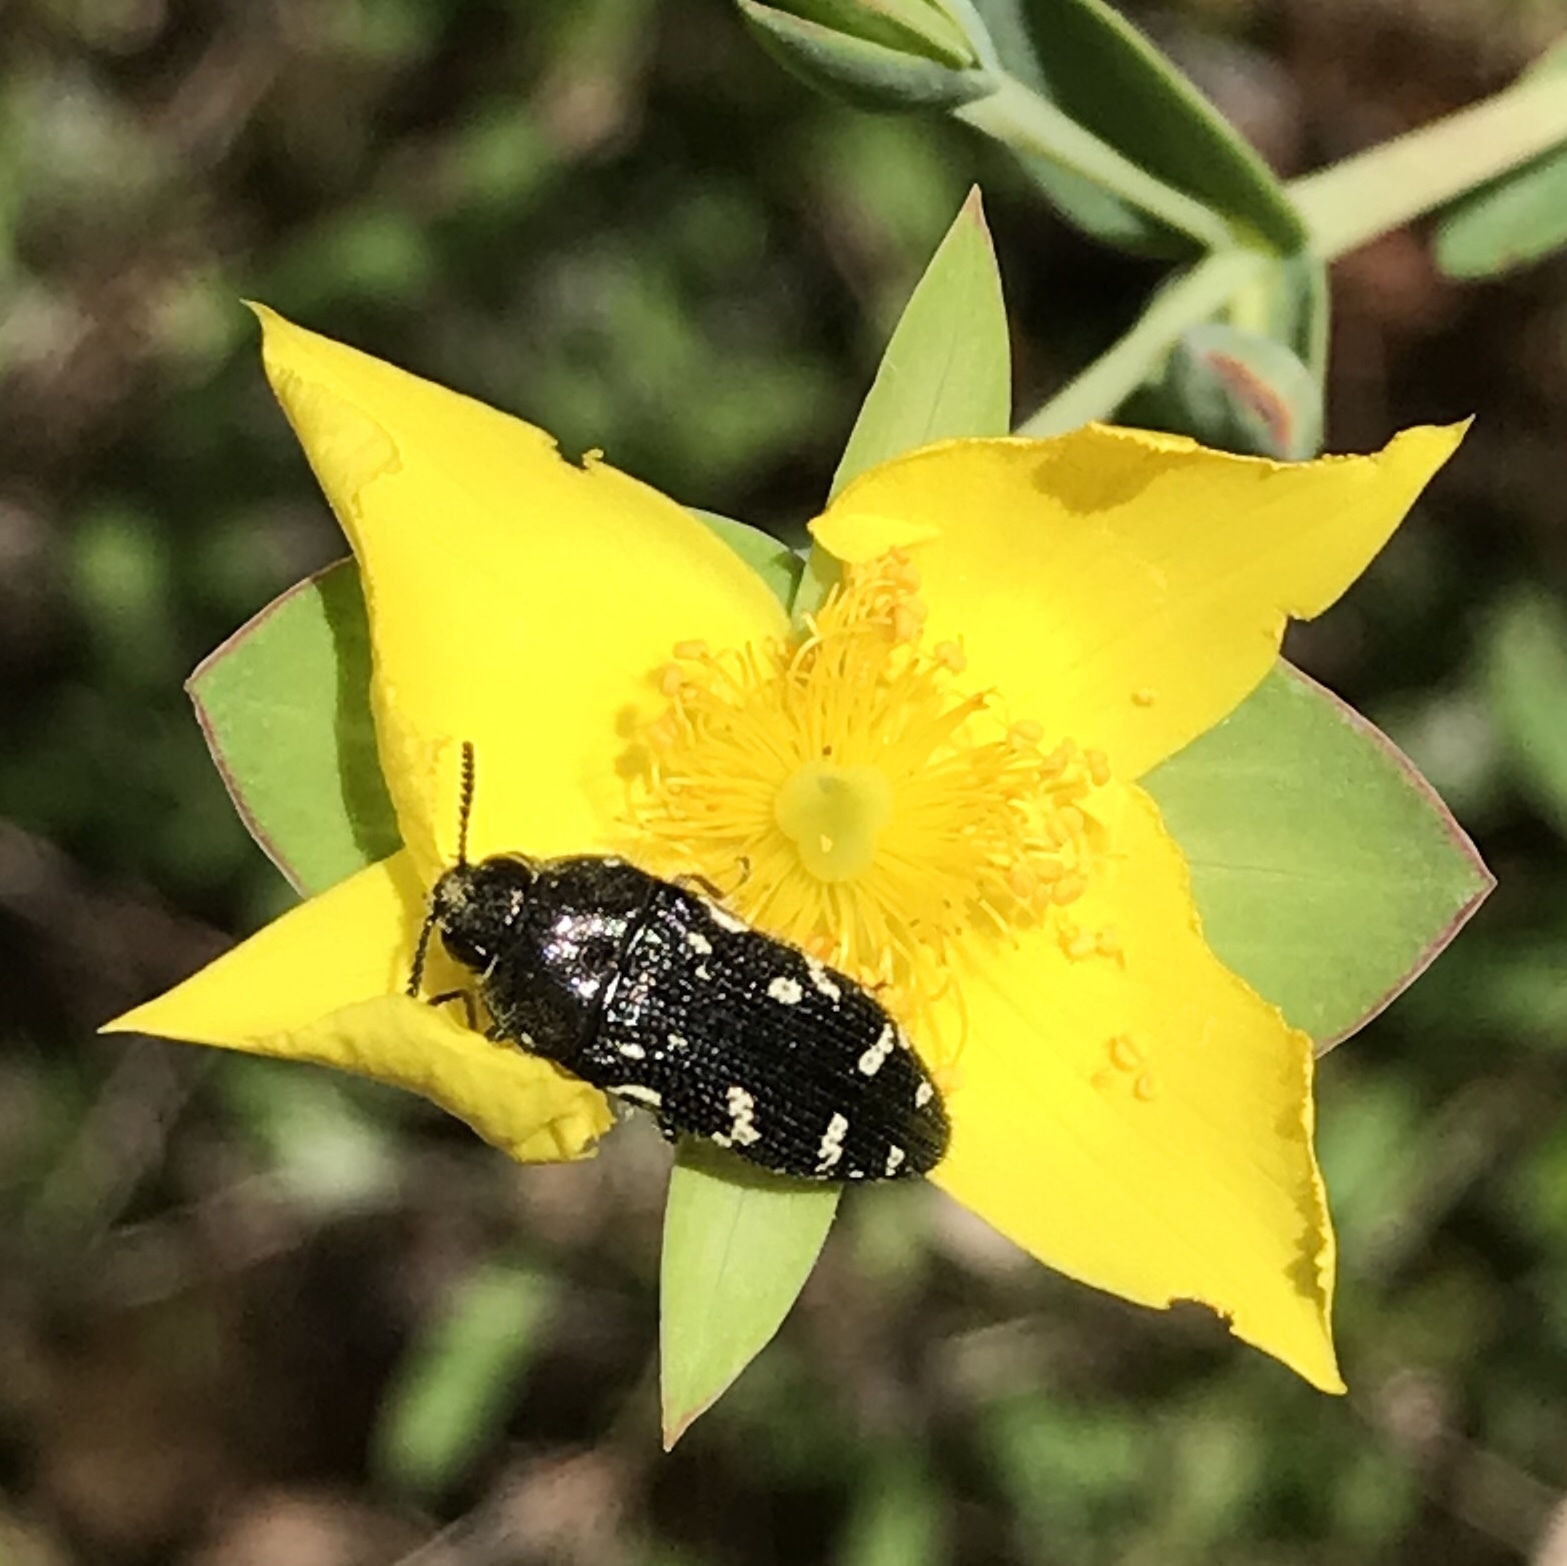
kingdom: Animalia
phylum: Arthropoda
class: Insecta
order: Coleoptera
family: Buprestidae
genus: Acmaeodera
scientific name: Acmaeodera ornata
